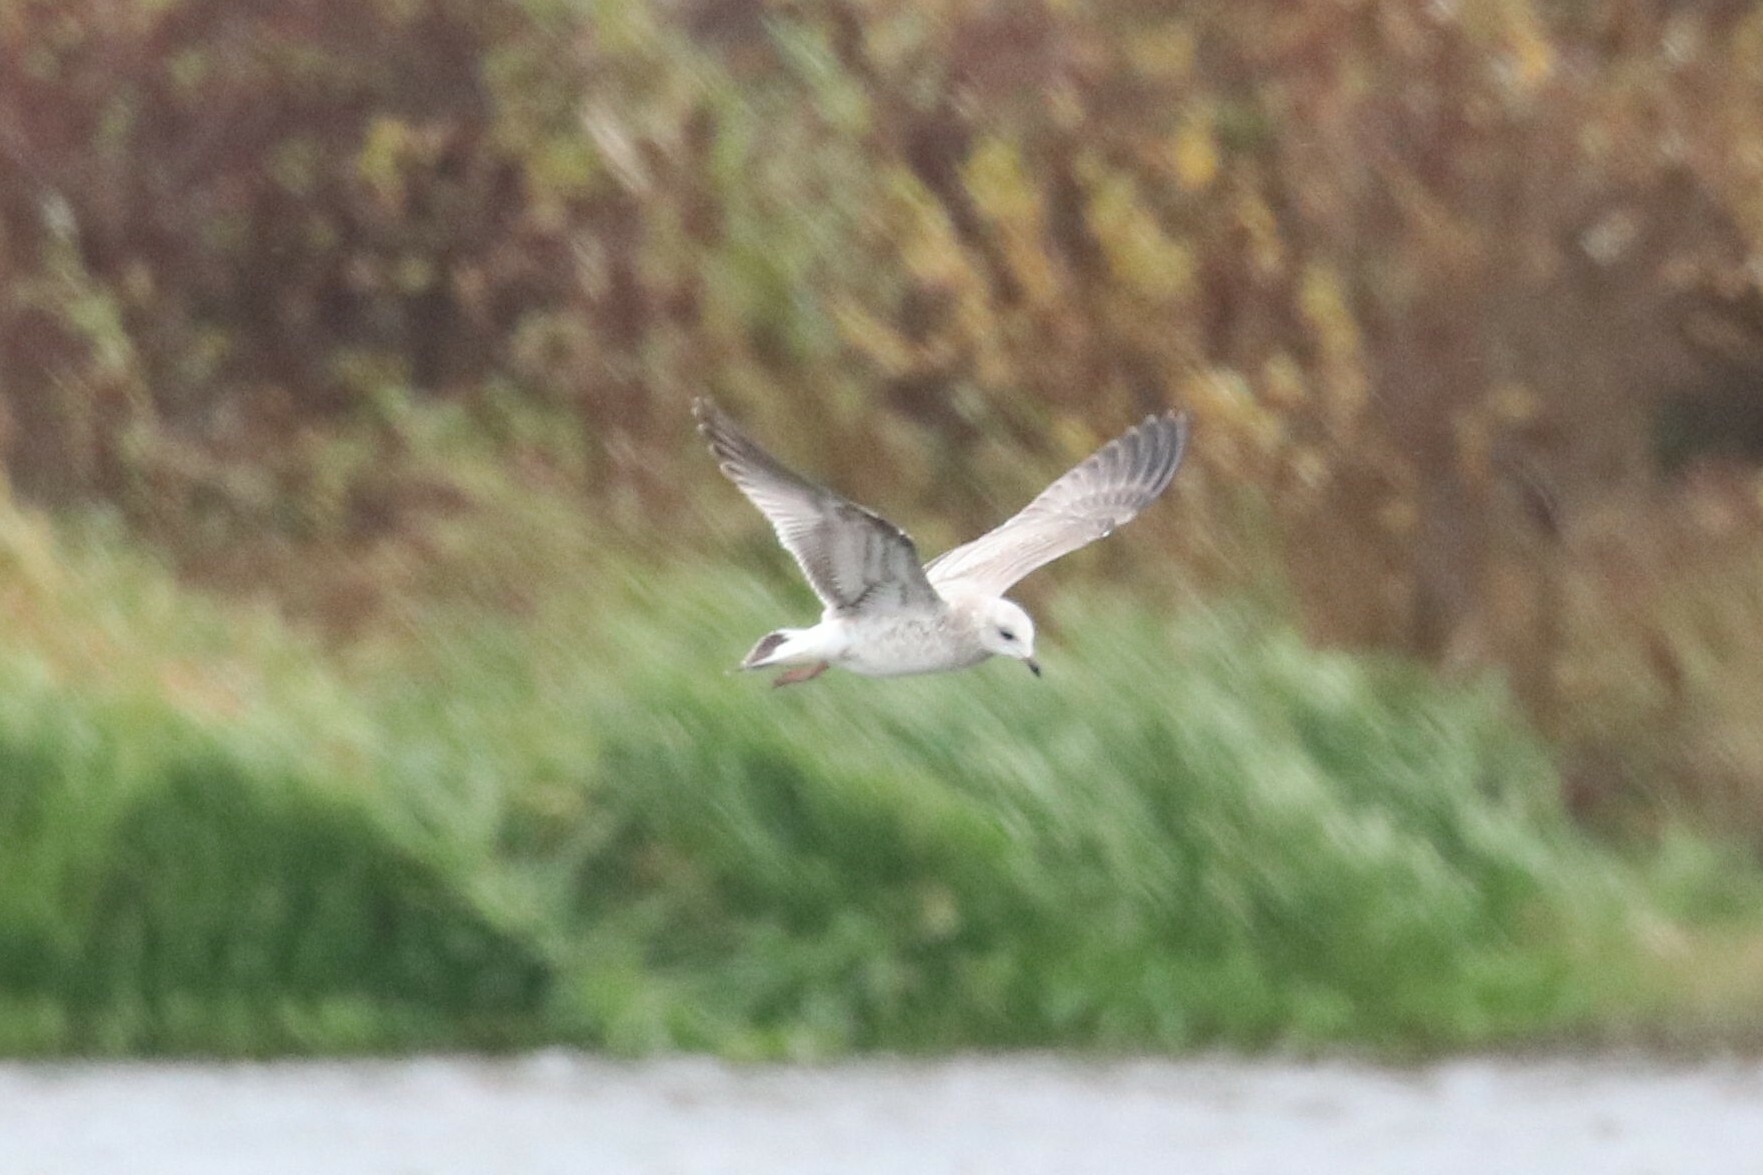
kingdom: Animalia
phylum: Chordata
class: Aves
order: Charadriiformes
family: Laridae
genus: Larus
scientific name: Larus canus
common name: Mew gull
